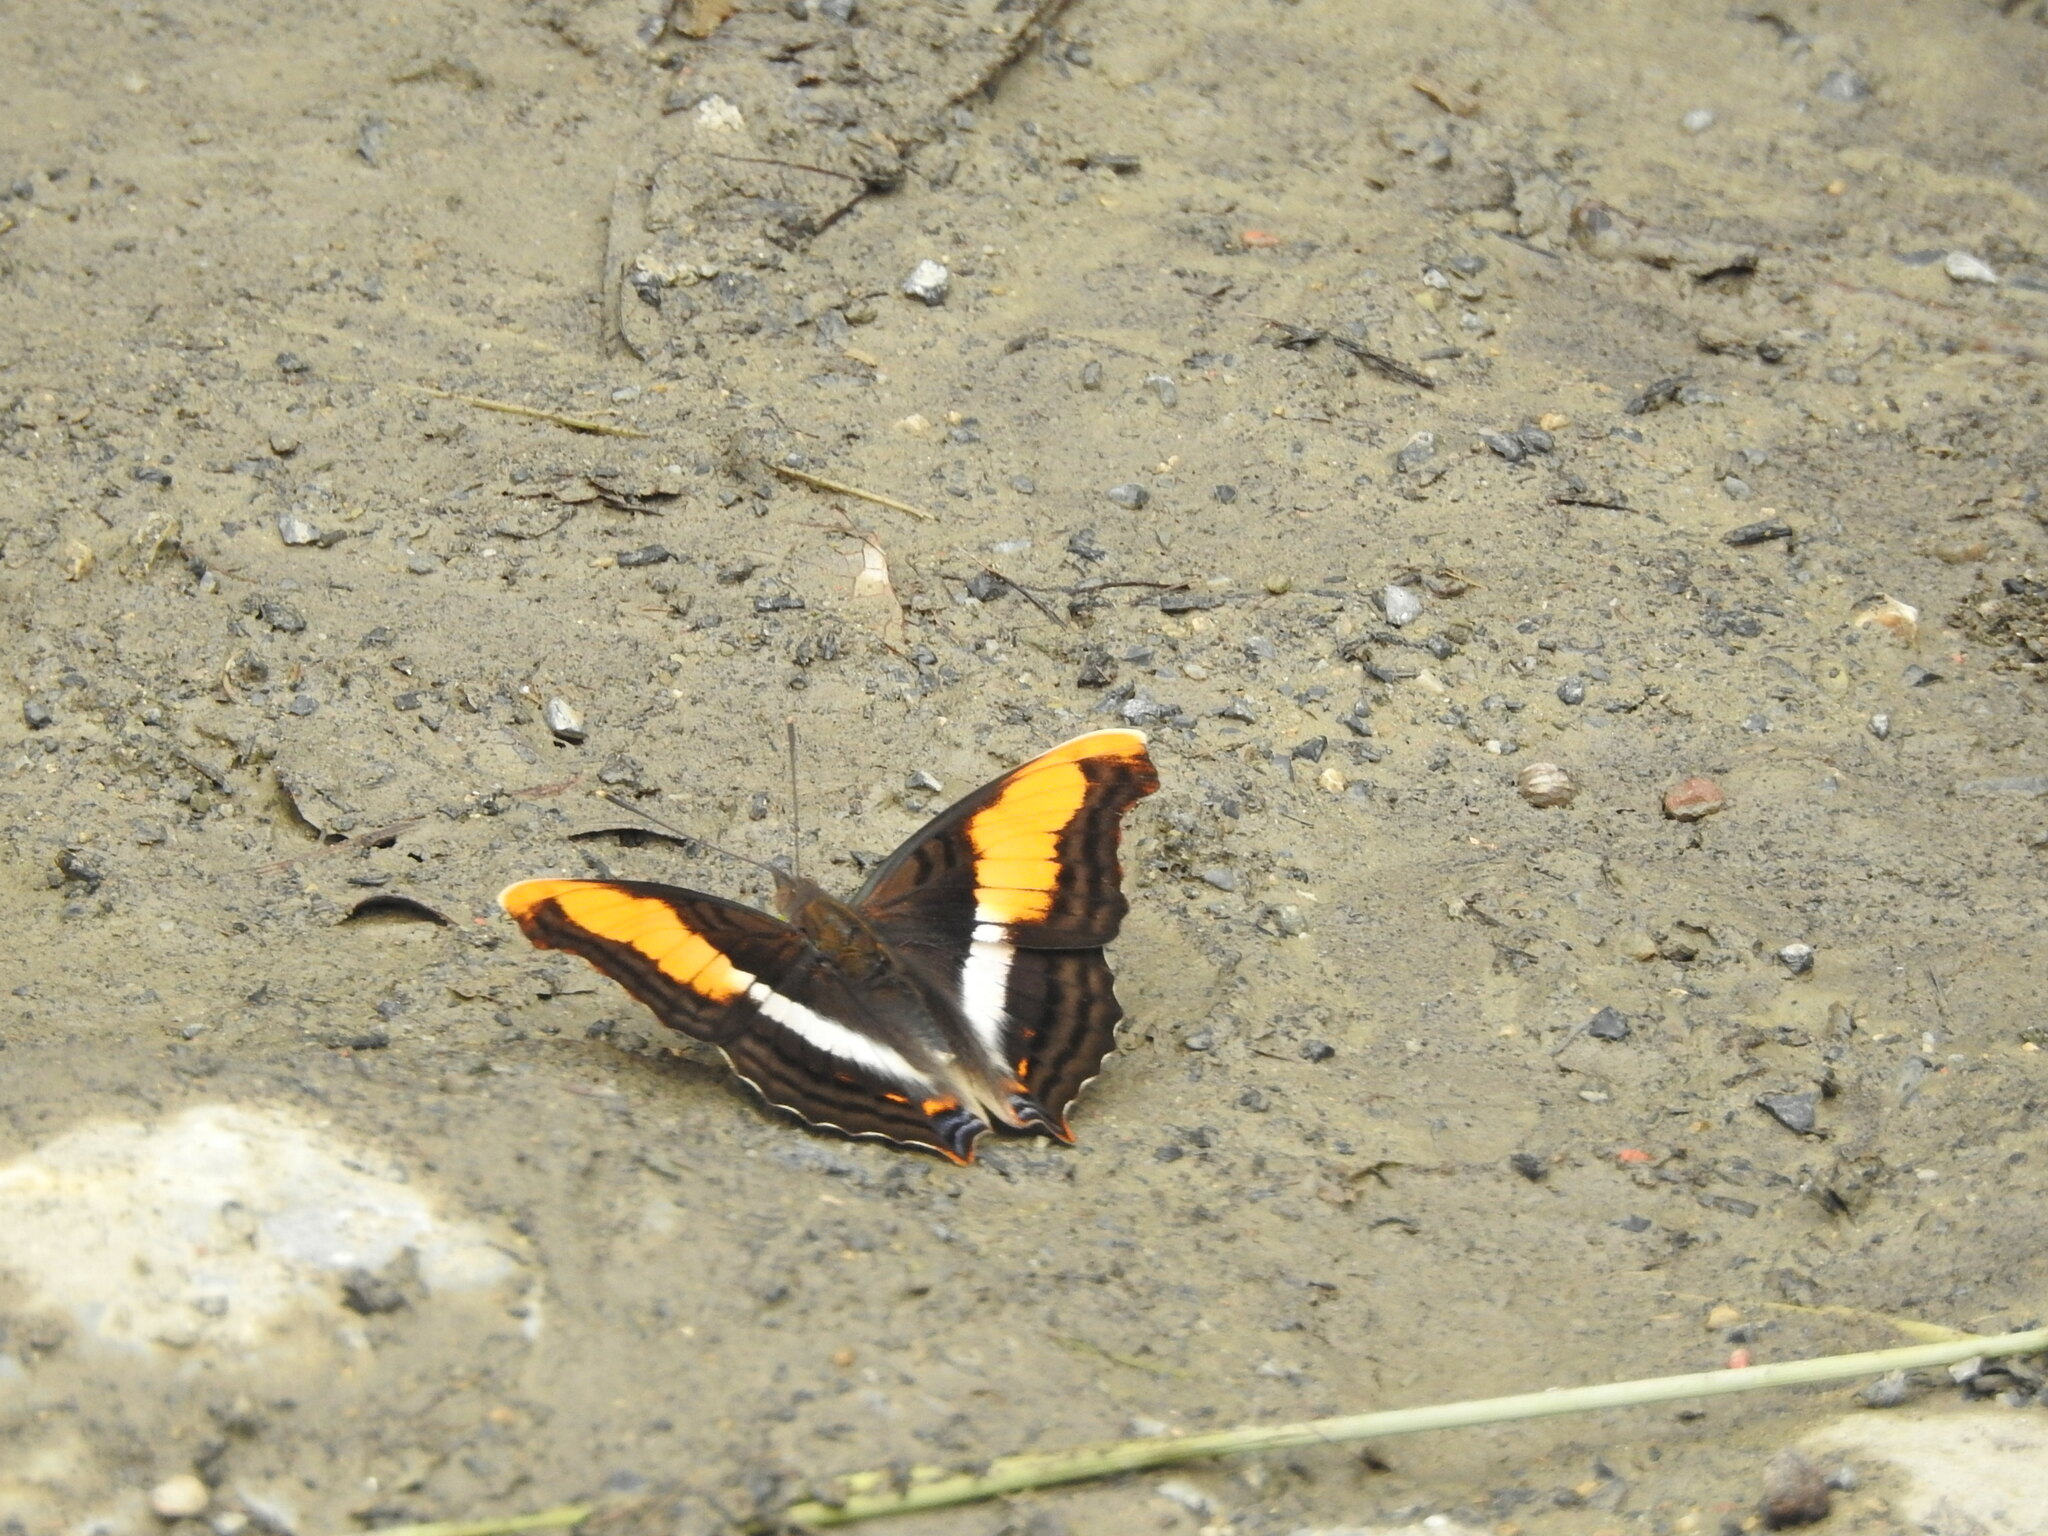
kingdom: Animalia
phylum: Arthropoda
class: Insecta
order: Lepidoptera
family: Nymphalidae
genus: Doxocopa
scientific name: Doxocopa laure
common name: Silver emperor
